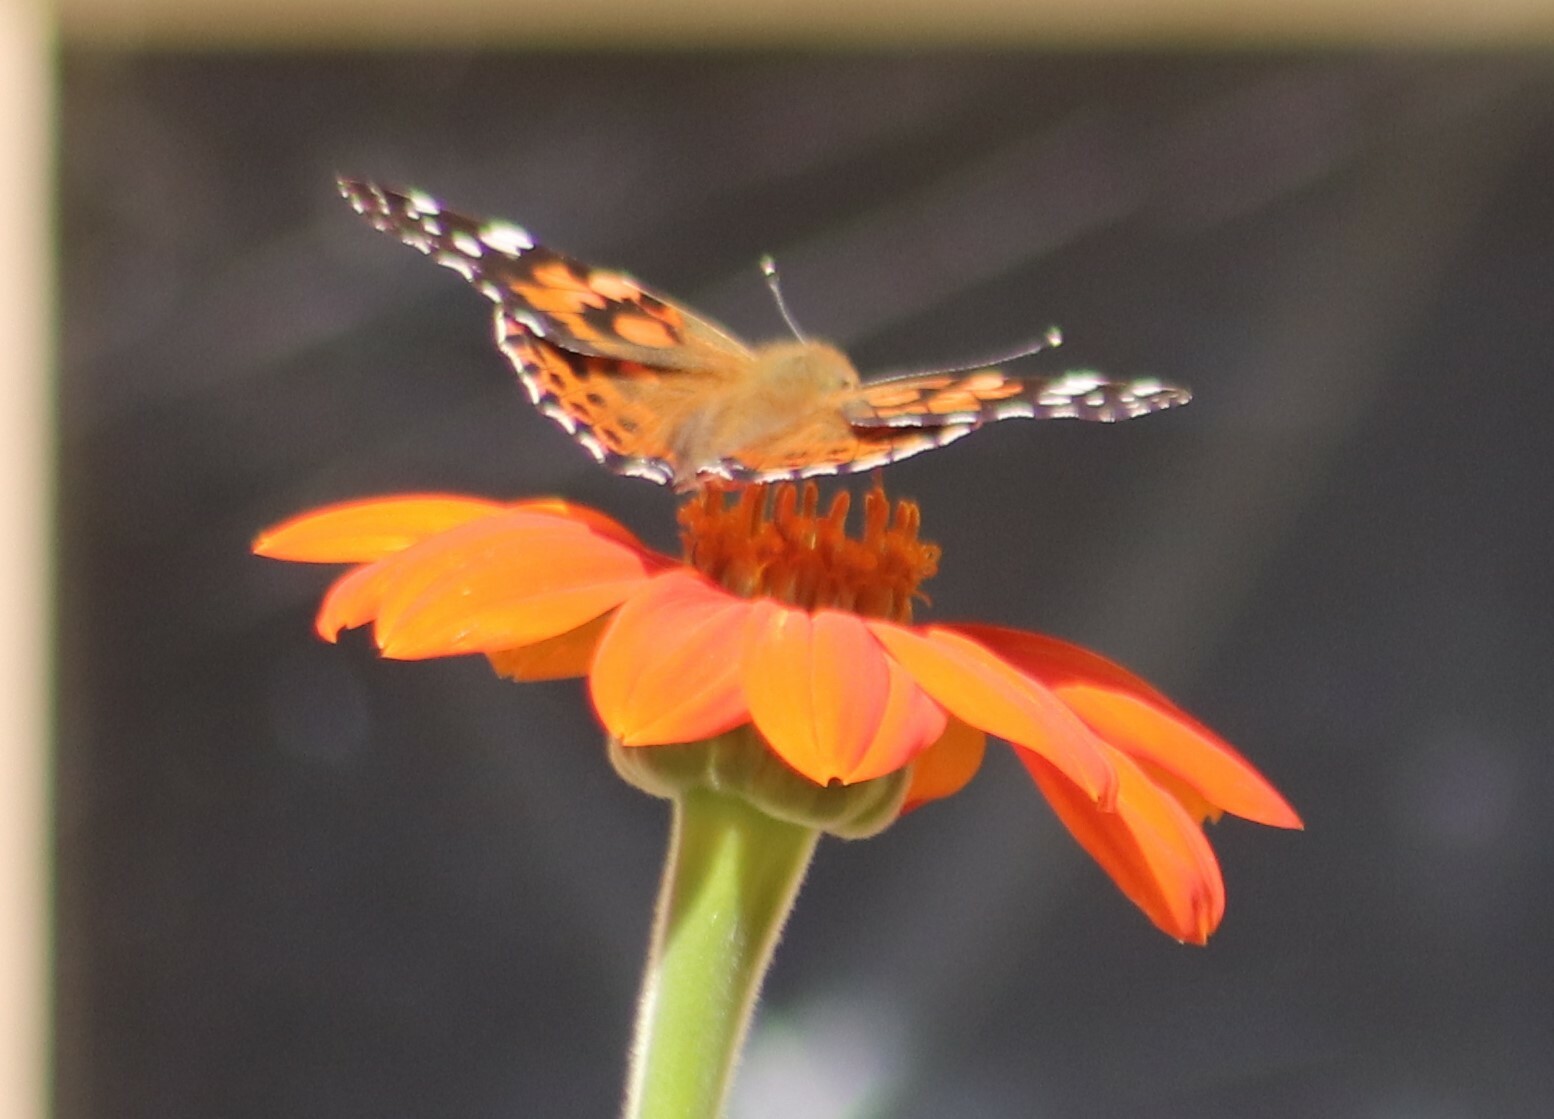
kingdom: Animalia
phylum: Arthropoda
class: Insecta
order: Lepidoptera
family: Nymphalidae
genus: Vanessa
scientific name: Vanessa cardui
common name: Painted lady
